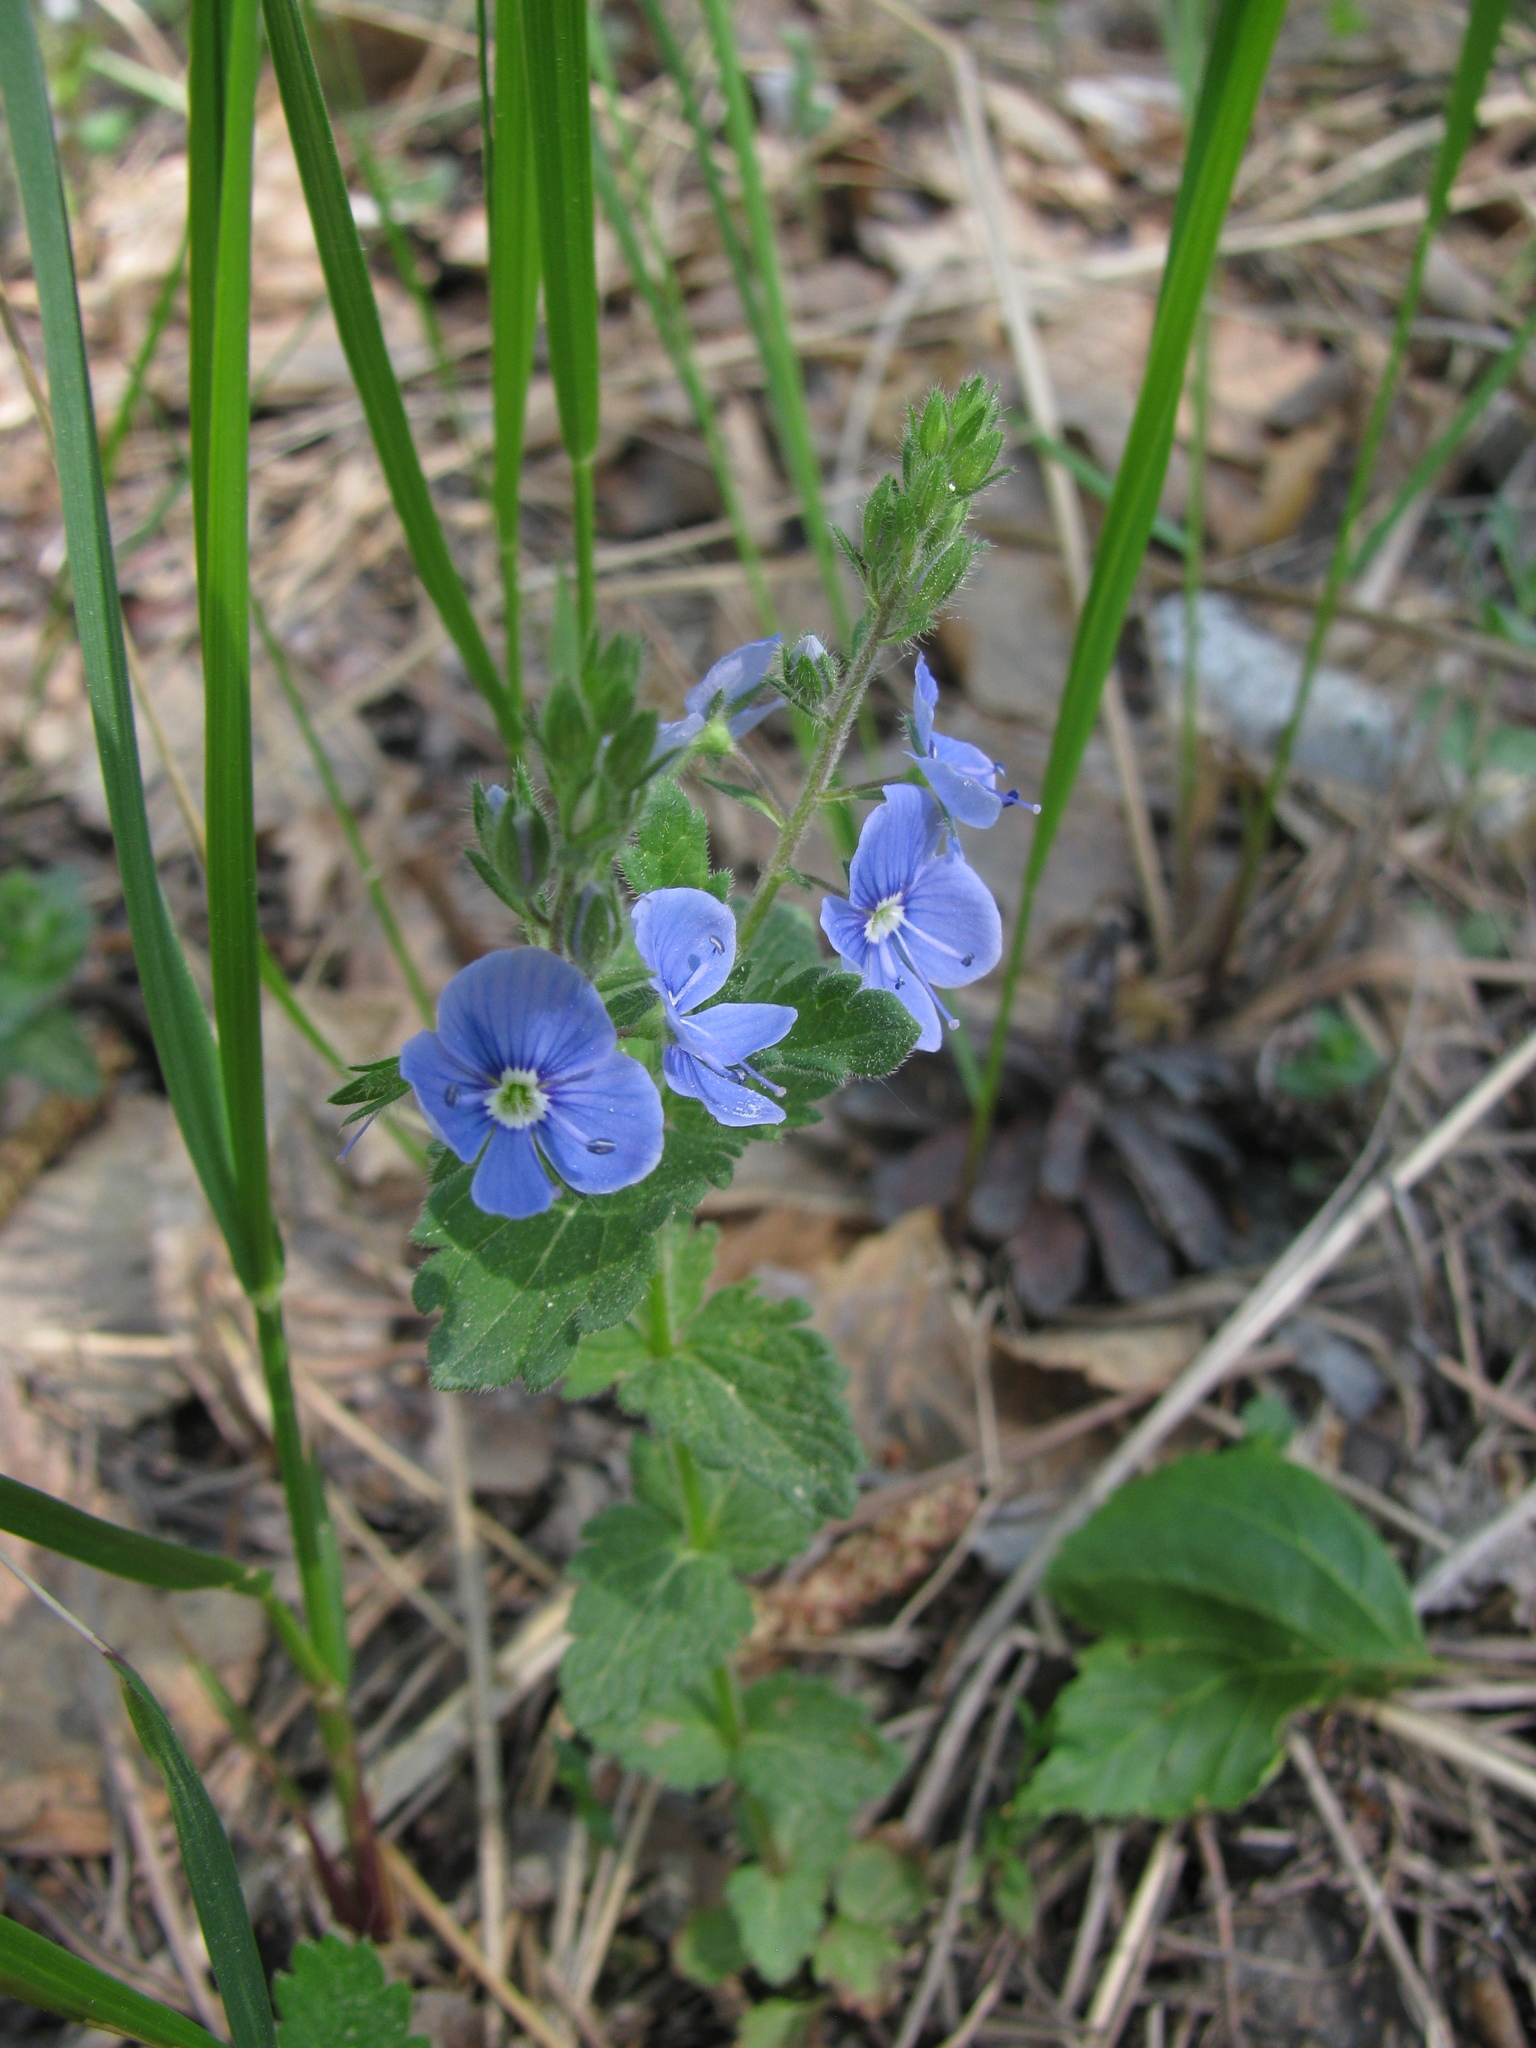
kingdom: Plantae
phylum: Tracheophyta
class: Magnoliopsida
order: Lamiales
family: Plantaginaceae
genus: Veronica
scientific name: Veronica chamaedrys
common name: Germander speedwell
